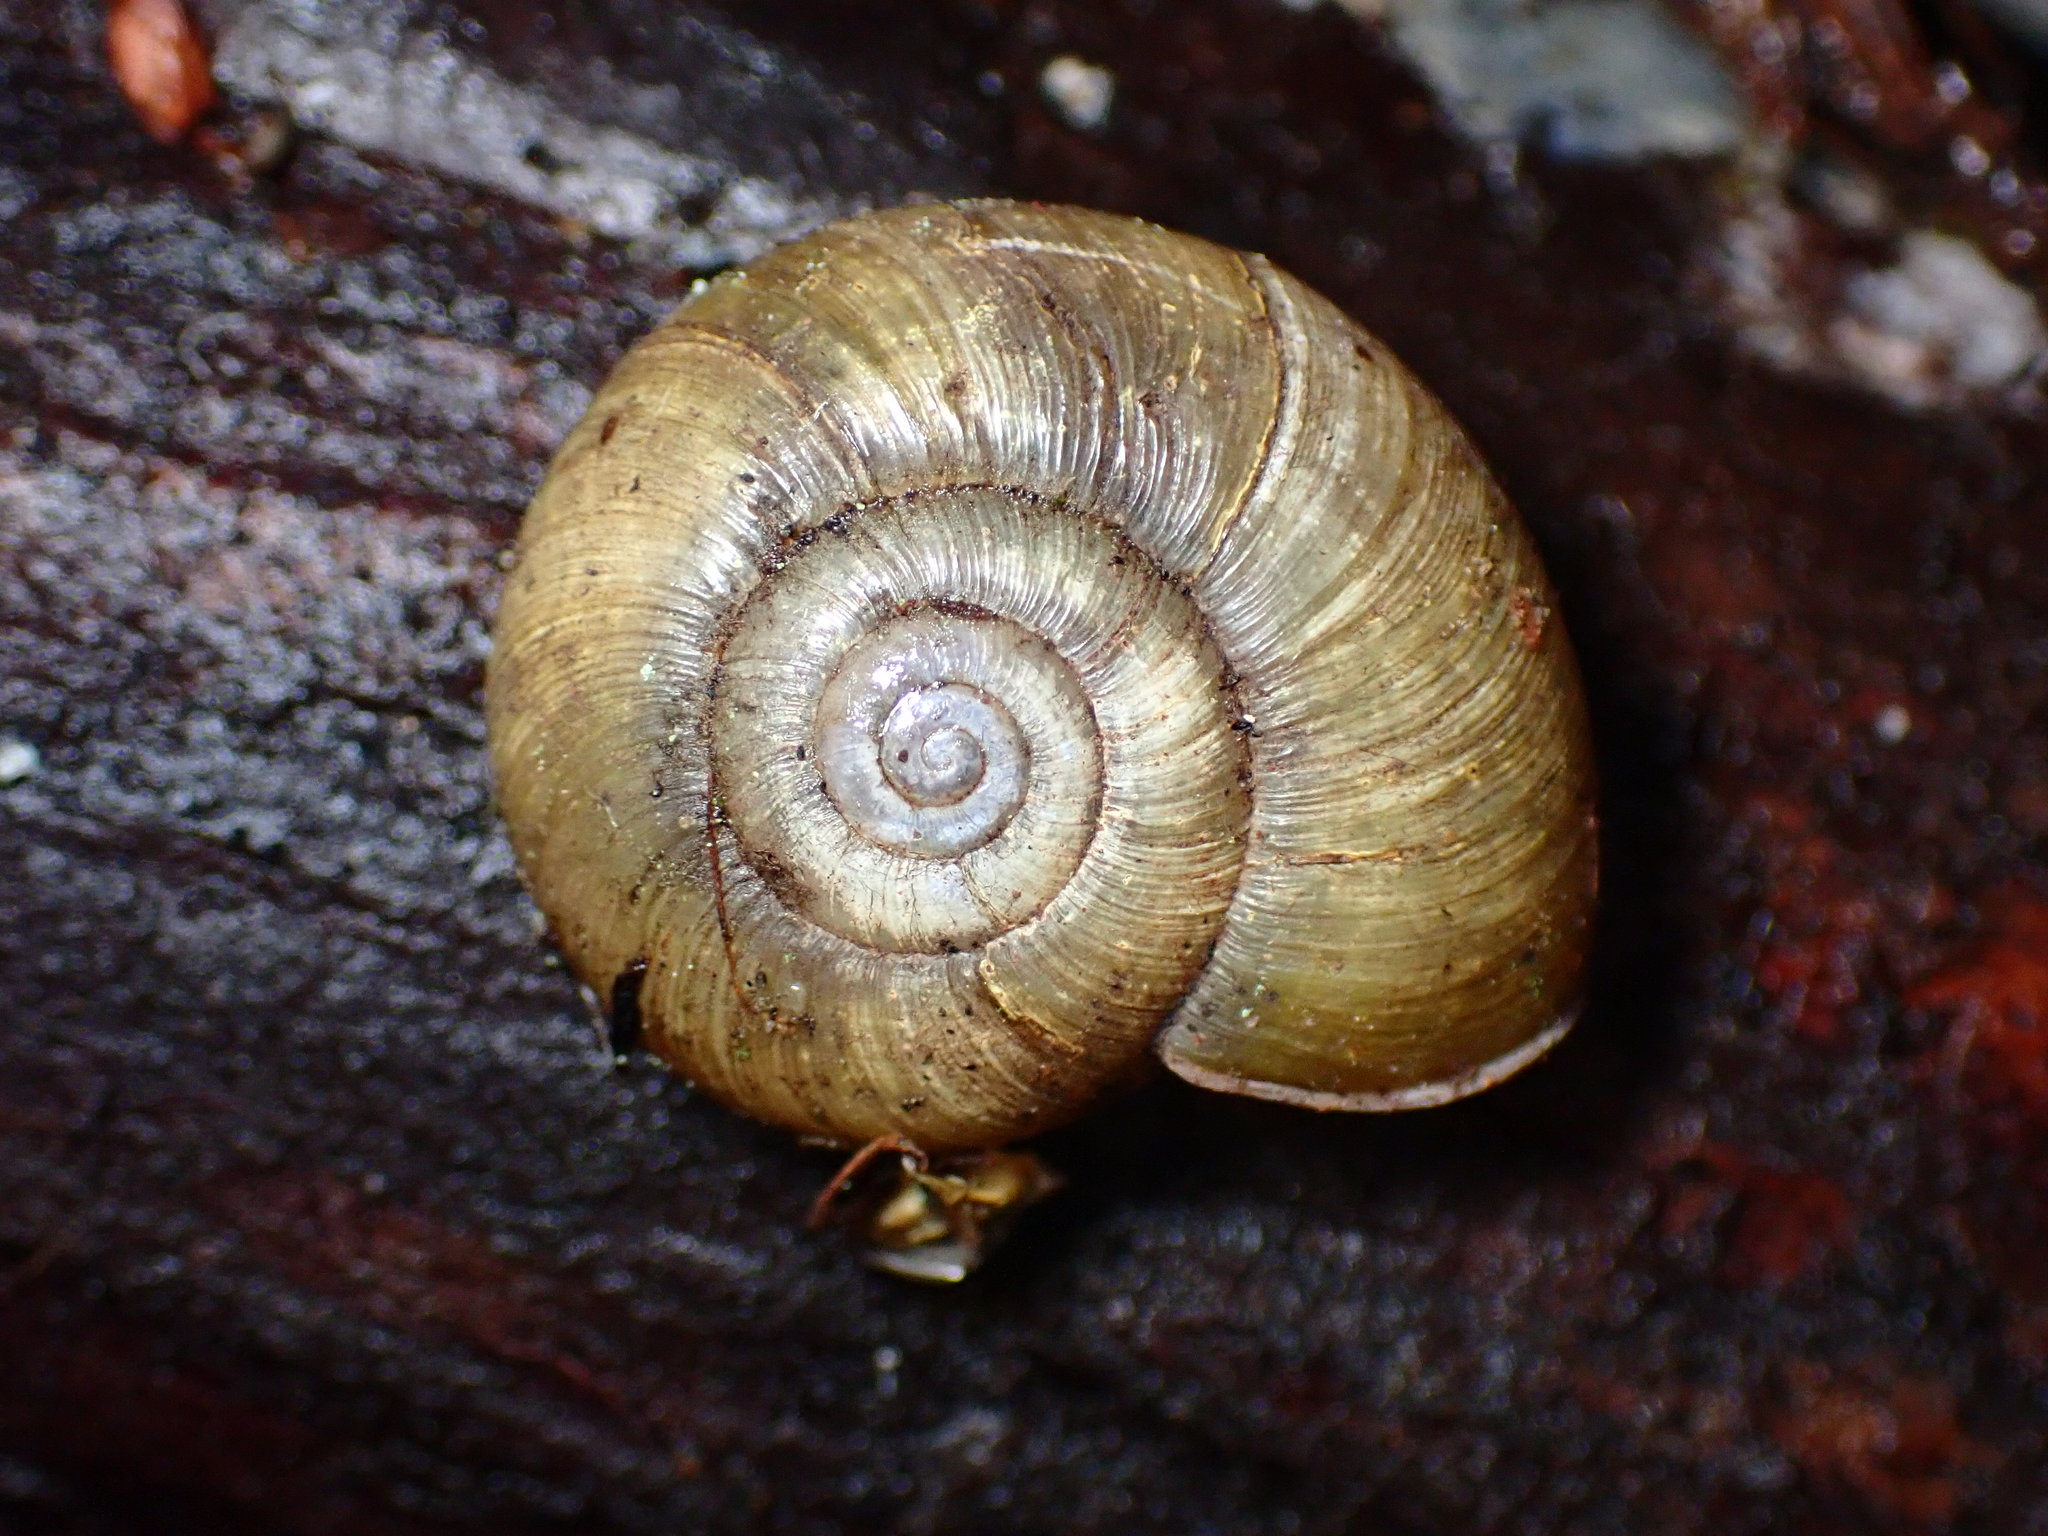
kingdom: Animalia
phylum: Mollusca
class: Gastropoda
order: Stylommatophora
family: Haplotrematidae
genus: Haplotrema
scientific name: Haplotrema minimum
